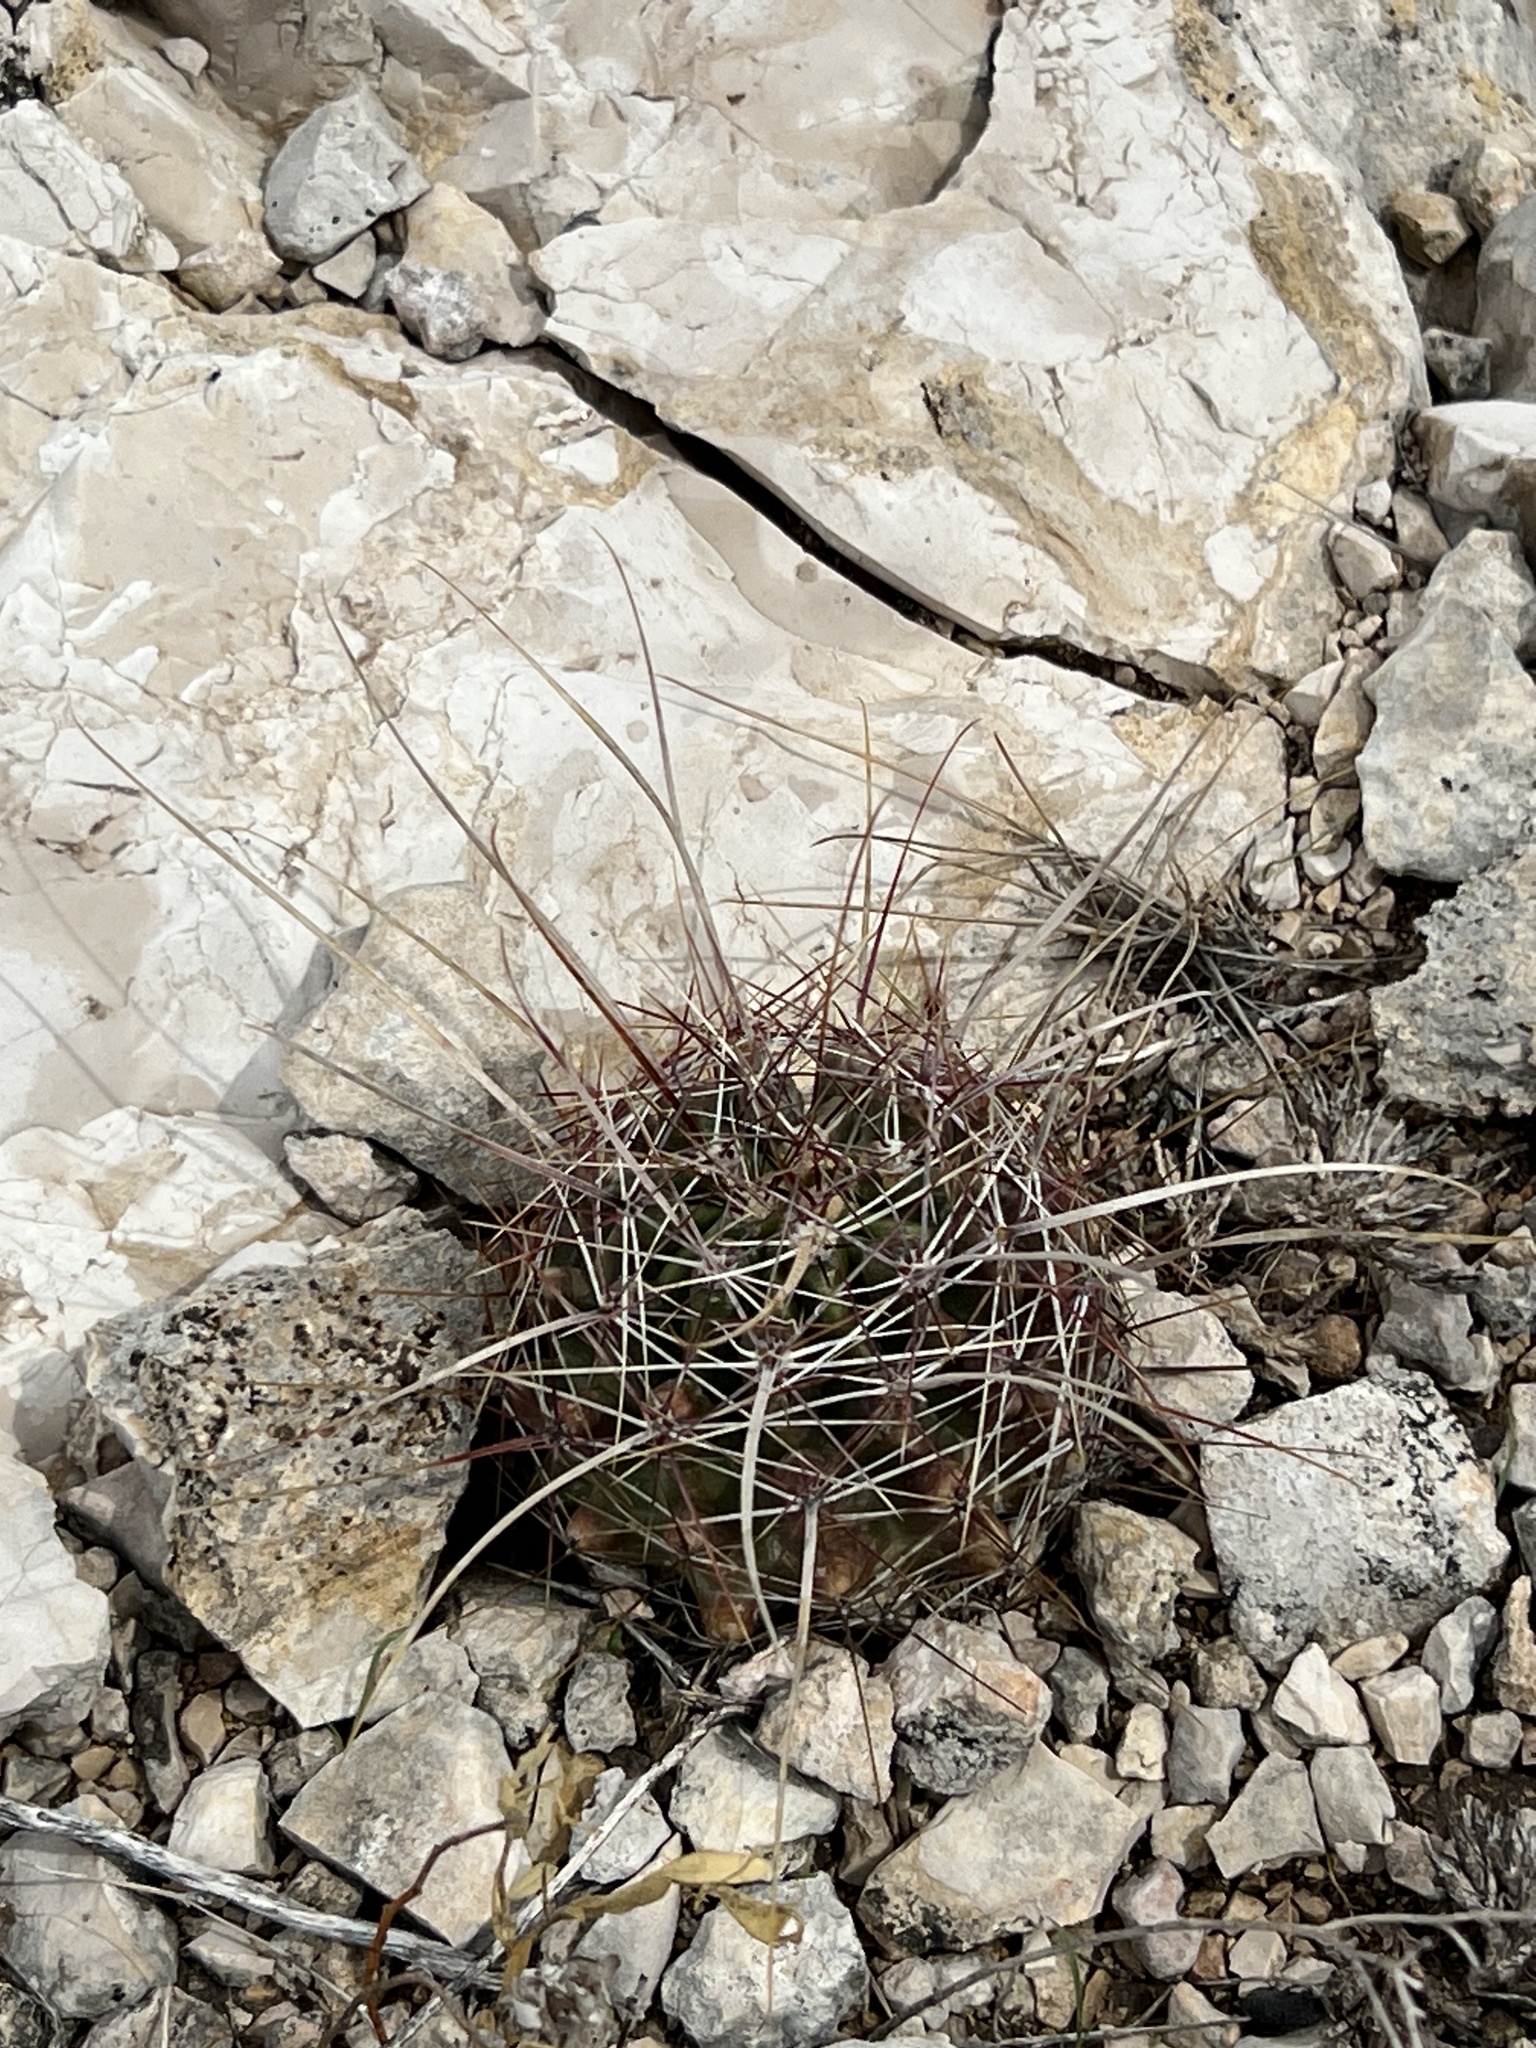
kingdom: Plantae
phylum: Tracheophyta
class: Magnoliopsida
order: Caryophyllales
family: Cactaceae
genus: Bisnaga
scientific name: Bisnaga hamatacantha
